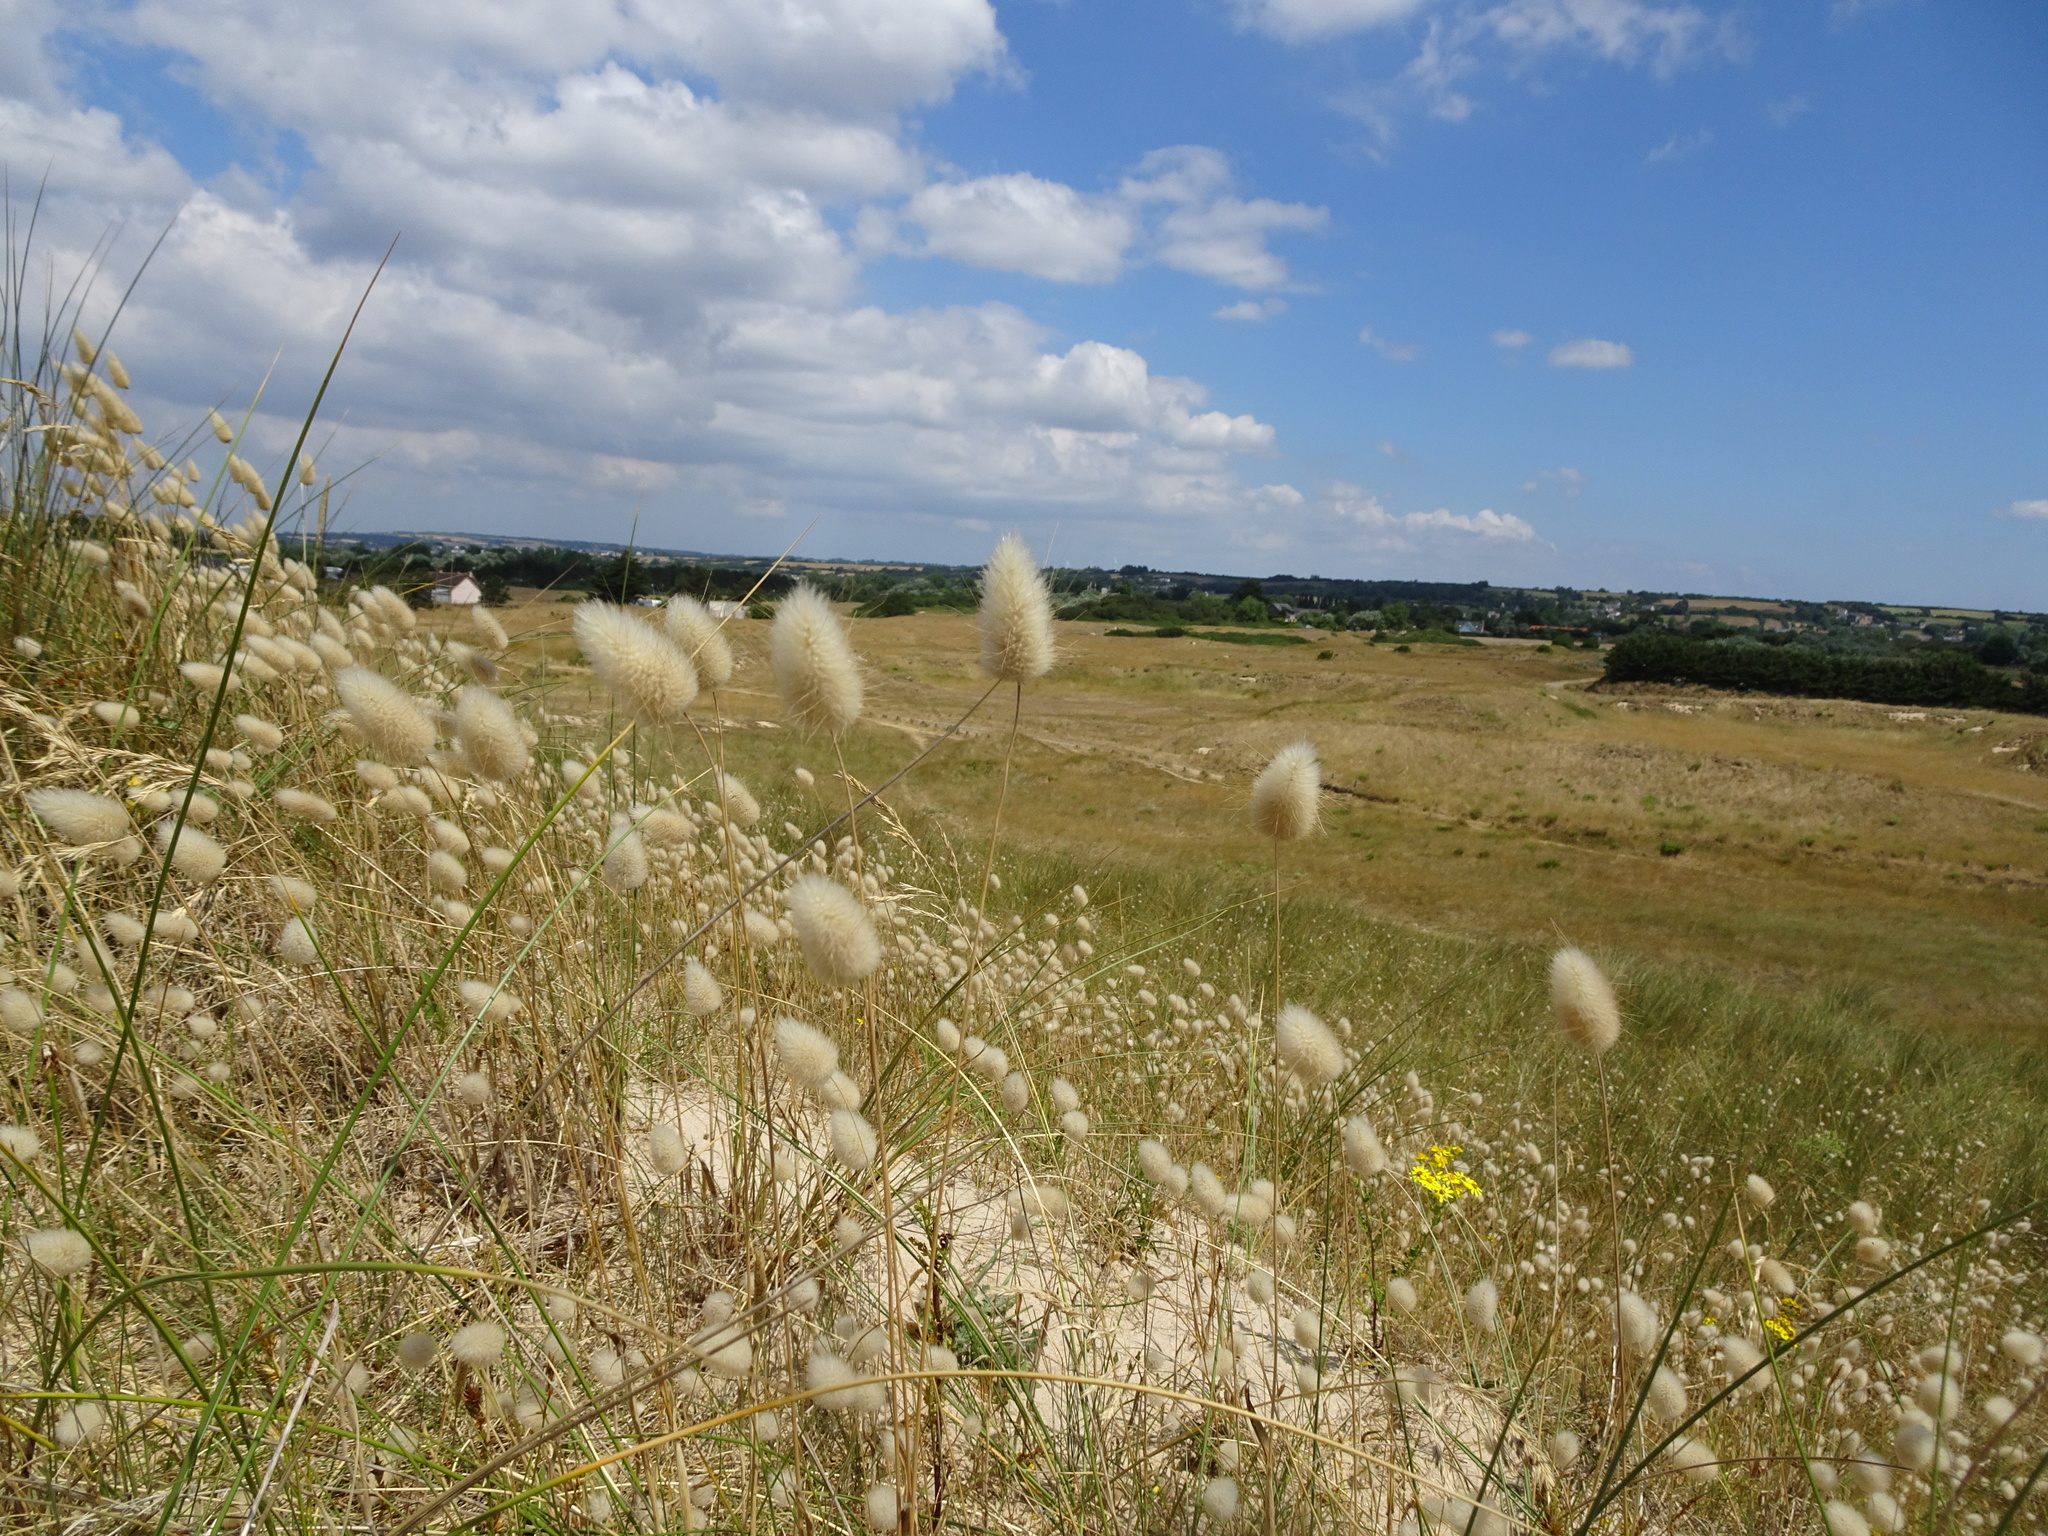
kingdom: Plantae
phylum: Tracheophyta
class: Liliopsida
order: Poales
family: Poaceae
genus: Lagurus
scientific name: Lagurus ovatus
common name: Hare's-tail
